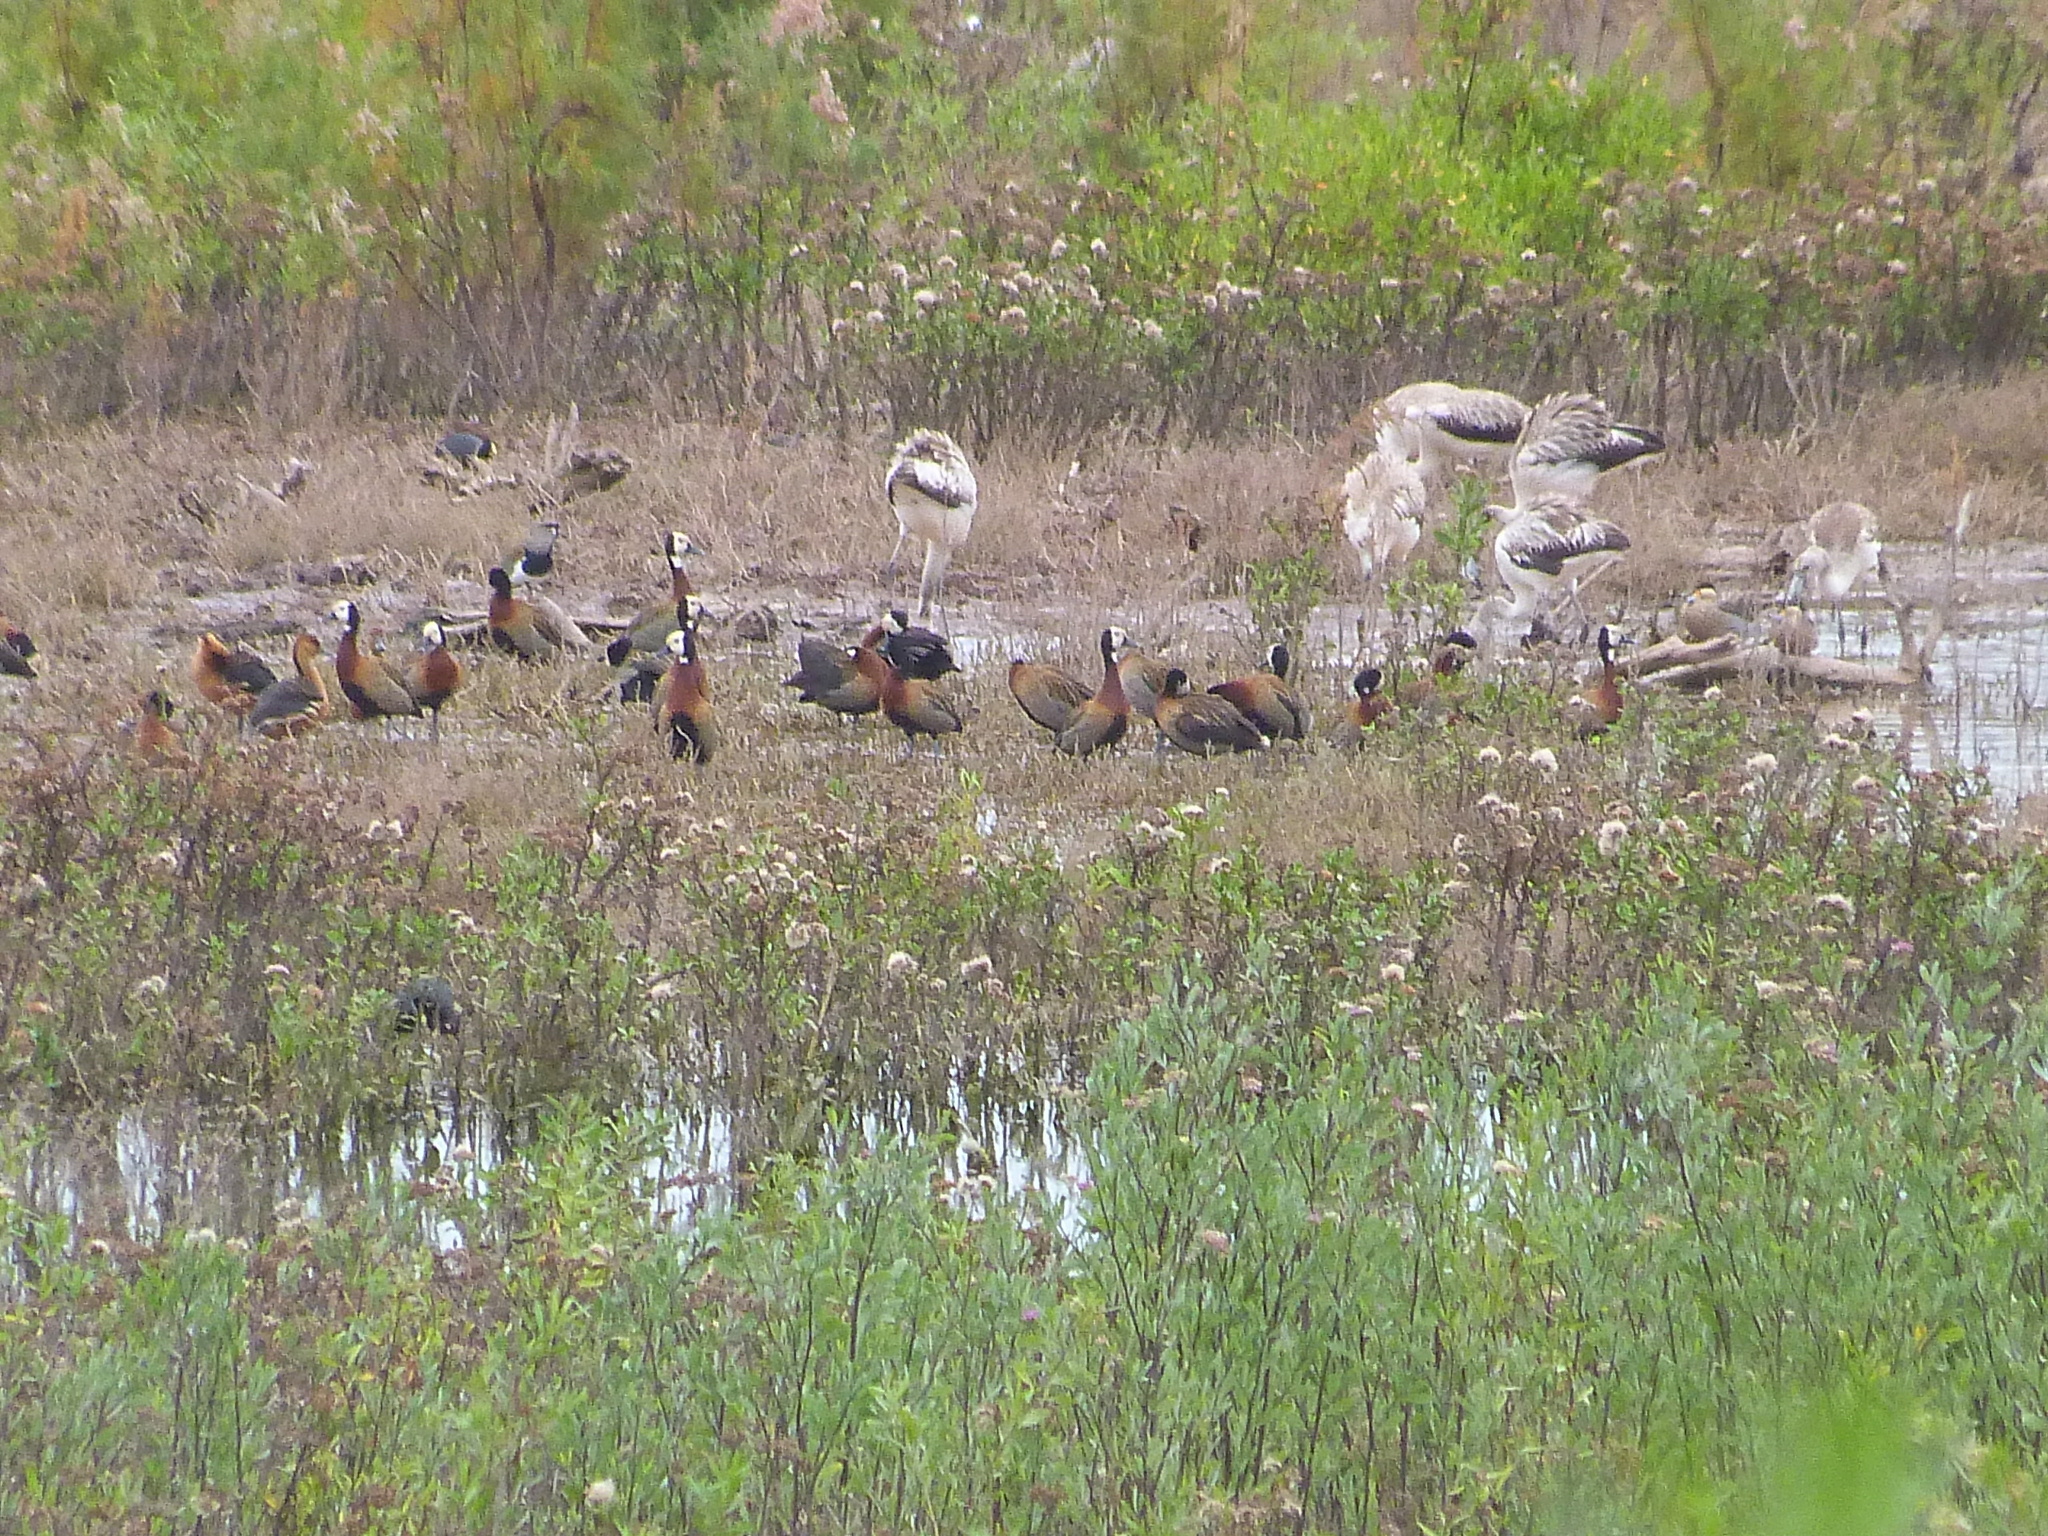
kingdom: Animalia
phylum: Chordata
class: Aves
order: Anseriformes
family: Anatidae
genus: Dendrocygna
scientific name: Dendrocygna viduata
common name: White-faced whistling duck
